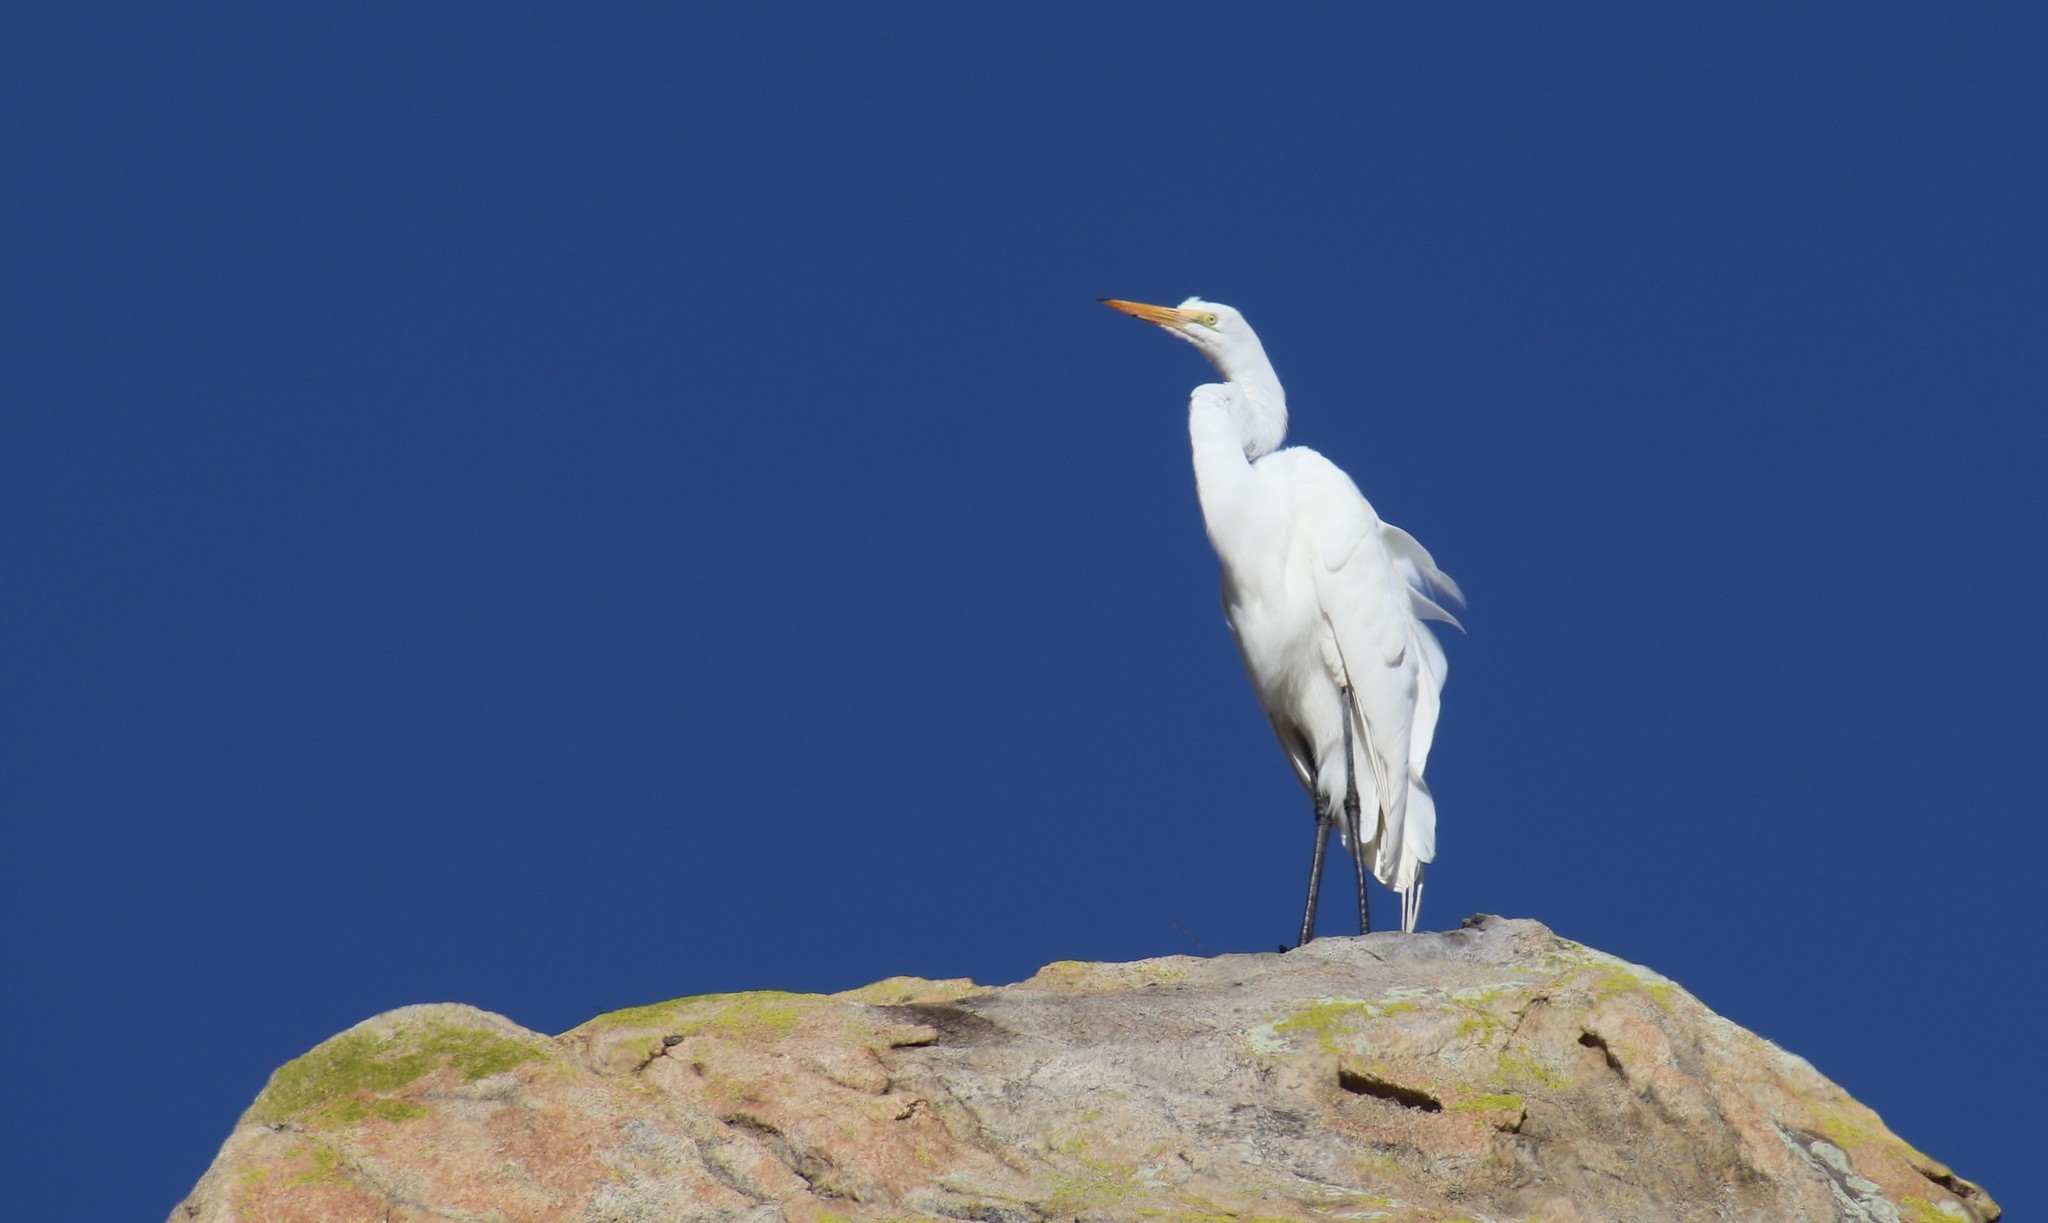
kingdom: Animalia
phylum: Chordata
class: Aves
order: Pelecaniformes
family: Ardeidae
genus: Ardea
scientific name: Ardea alba
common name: Great egret
